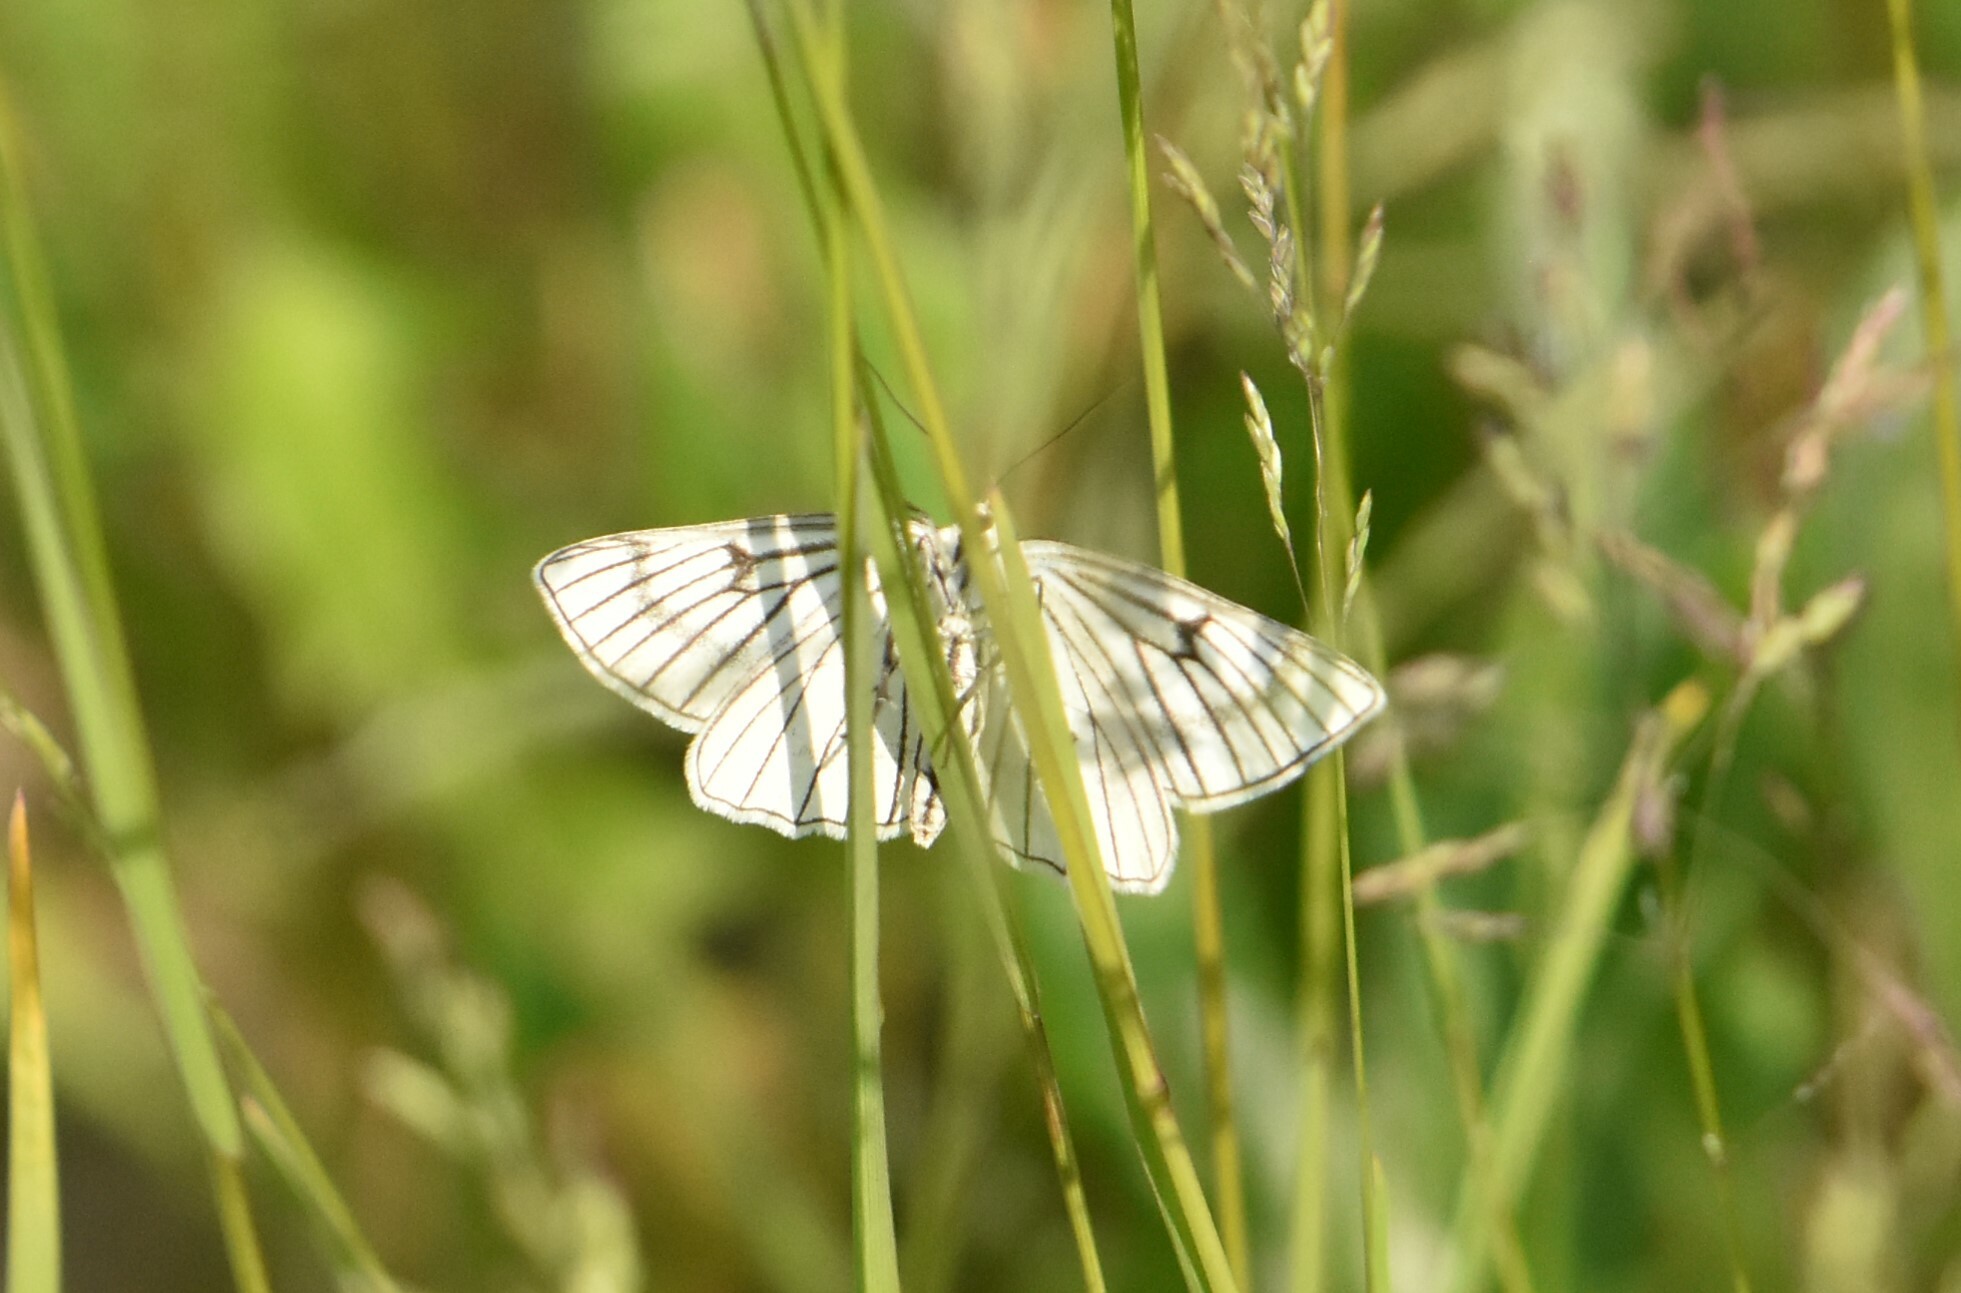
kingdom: Animalia
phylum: Arthropoda
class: Insecta
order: Lepidoptera
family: Geometridae
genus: Siona
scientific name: Siona lineata
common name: Black-veined moth
